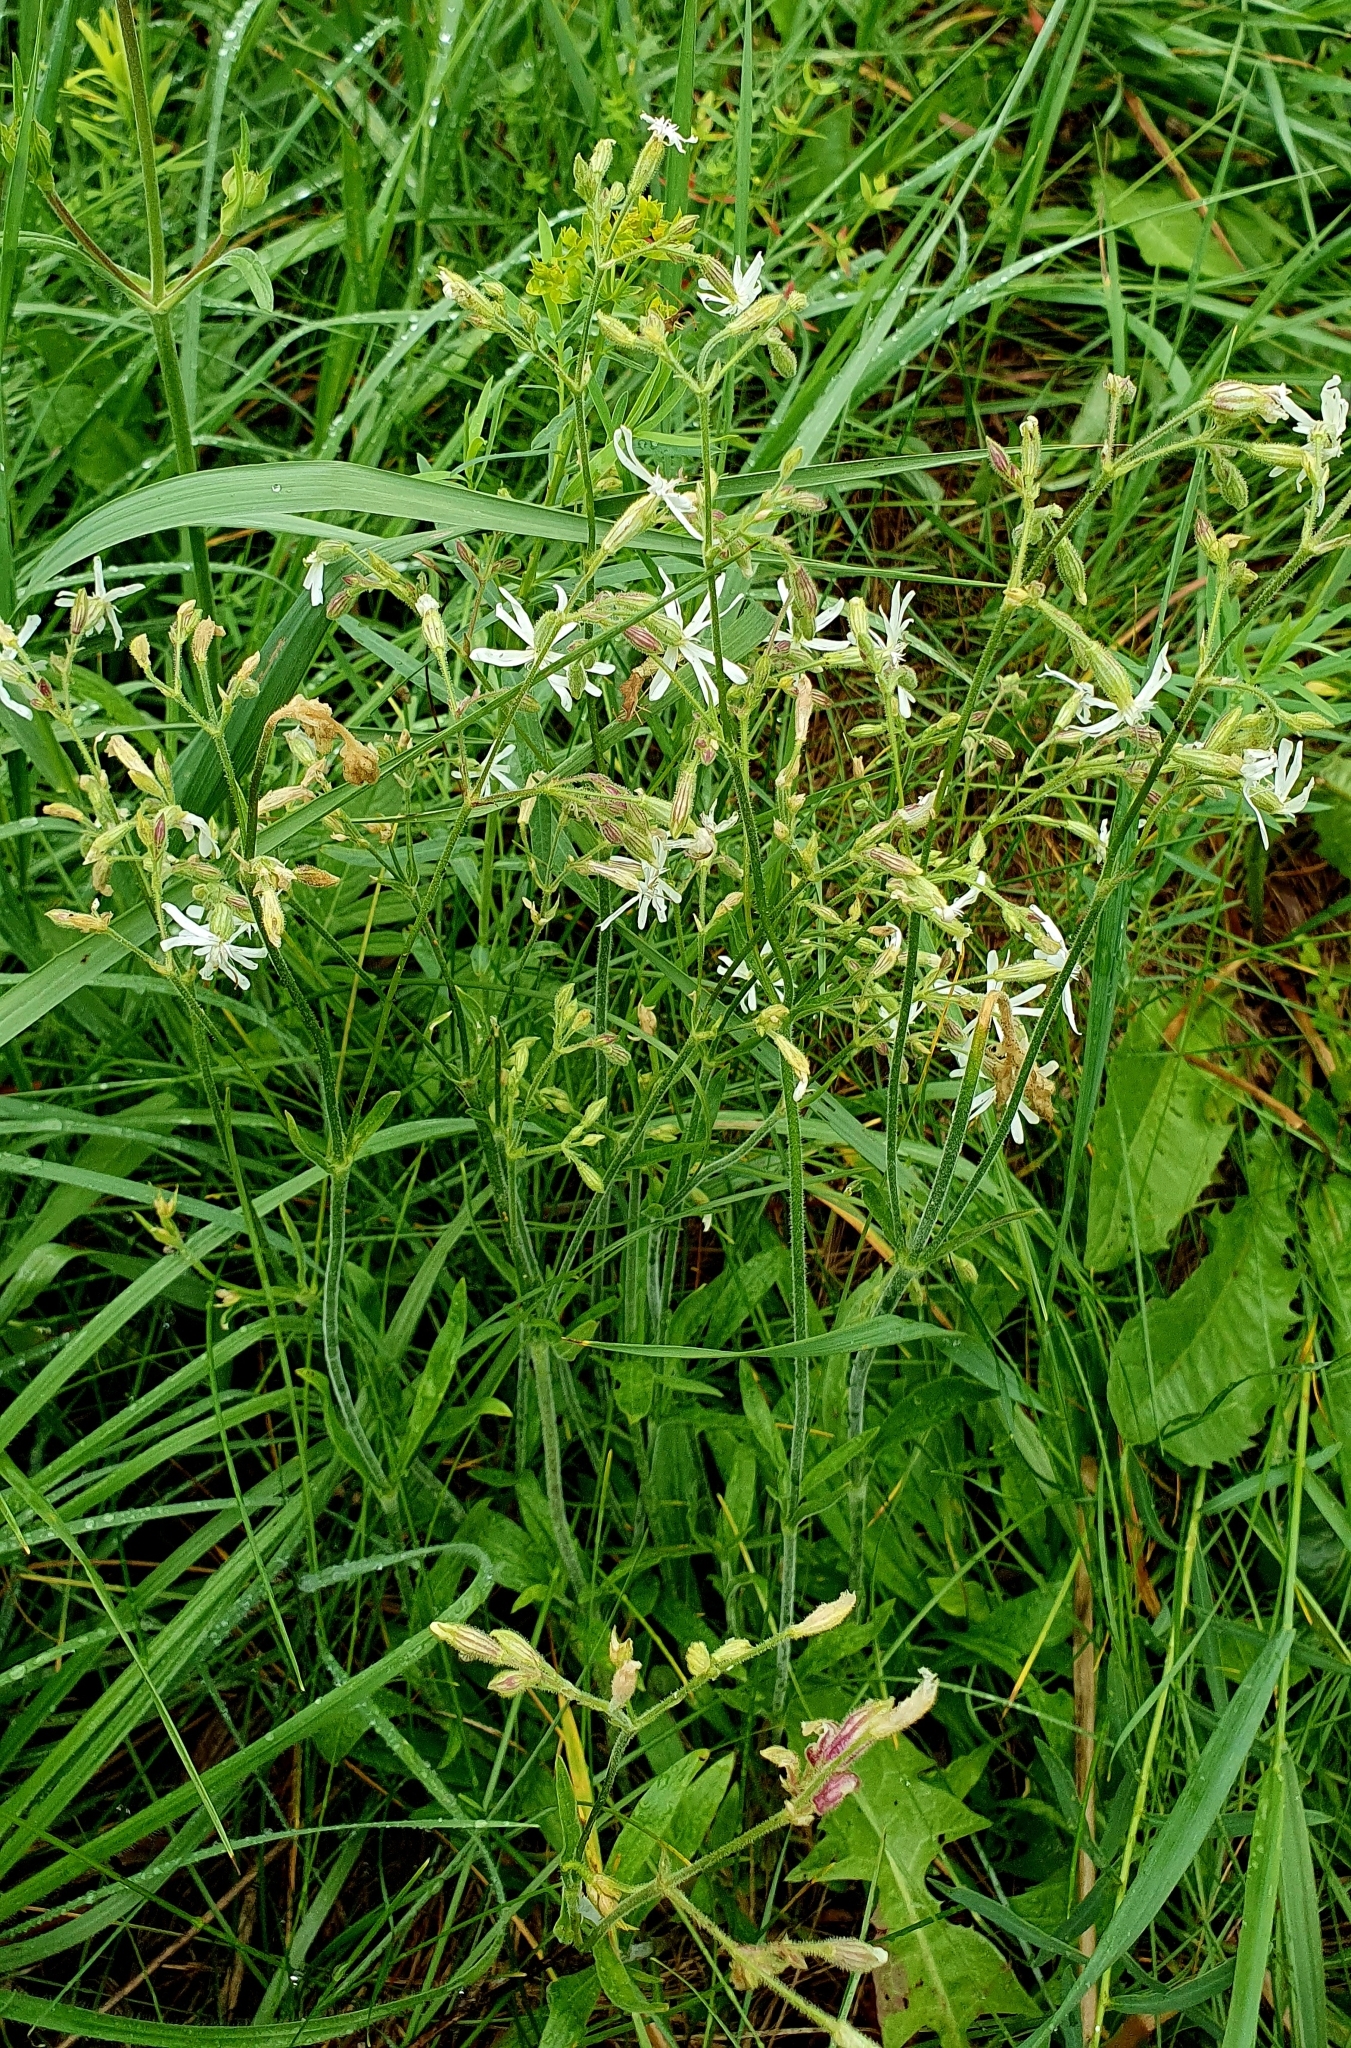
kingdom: Plantae
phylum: Tracheophyta
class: Magnoliopsida
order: Caryophyllales
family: Caryophyllaceae
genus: Silene
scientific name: Silene nutans
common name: Nottingham catchfly
